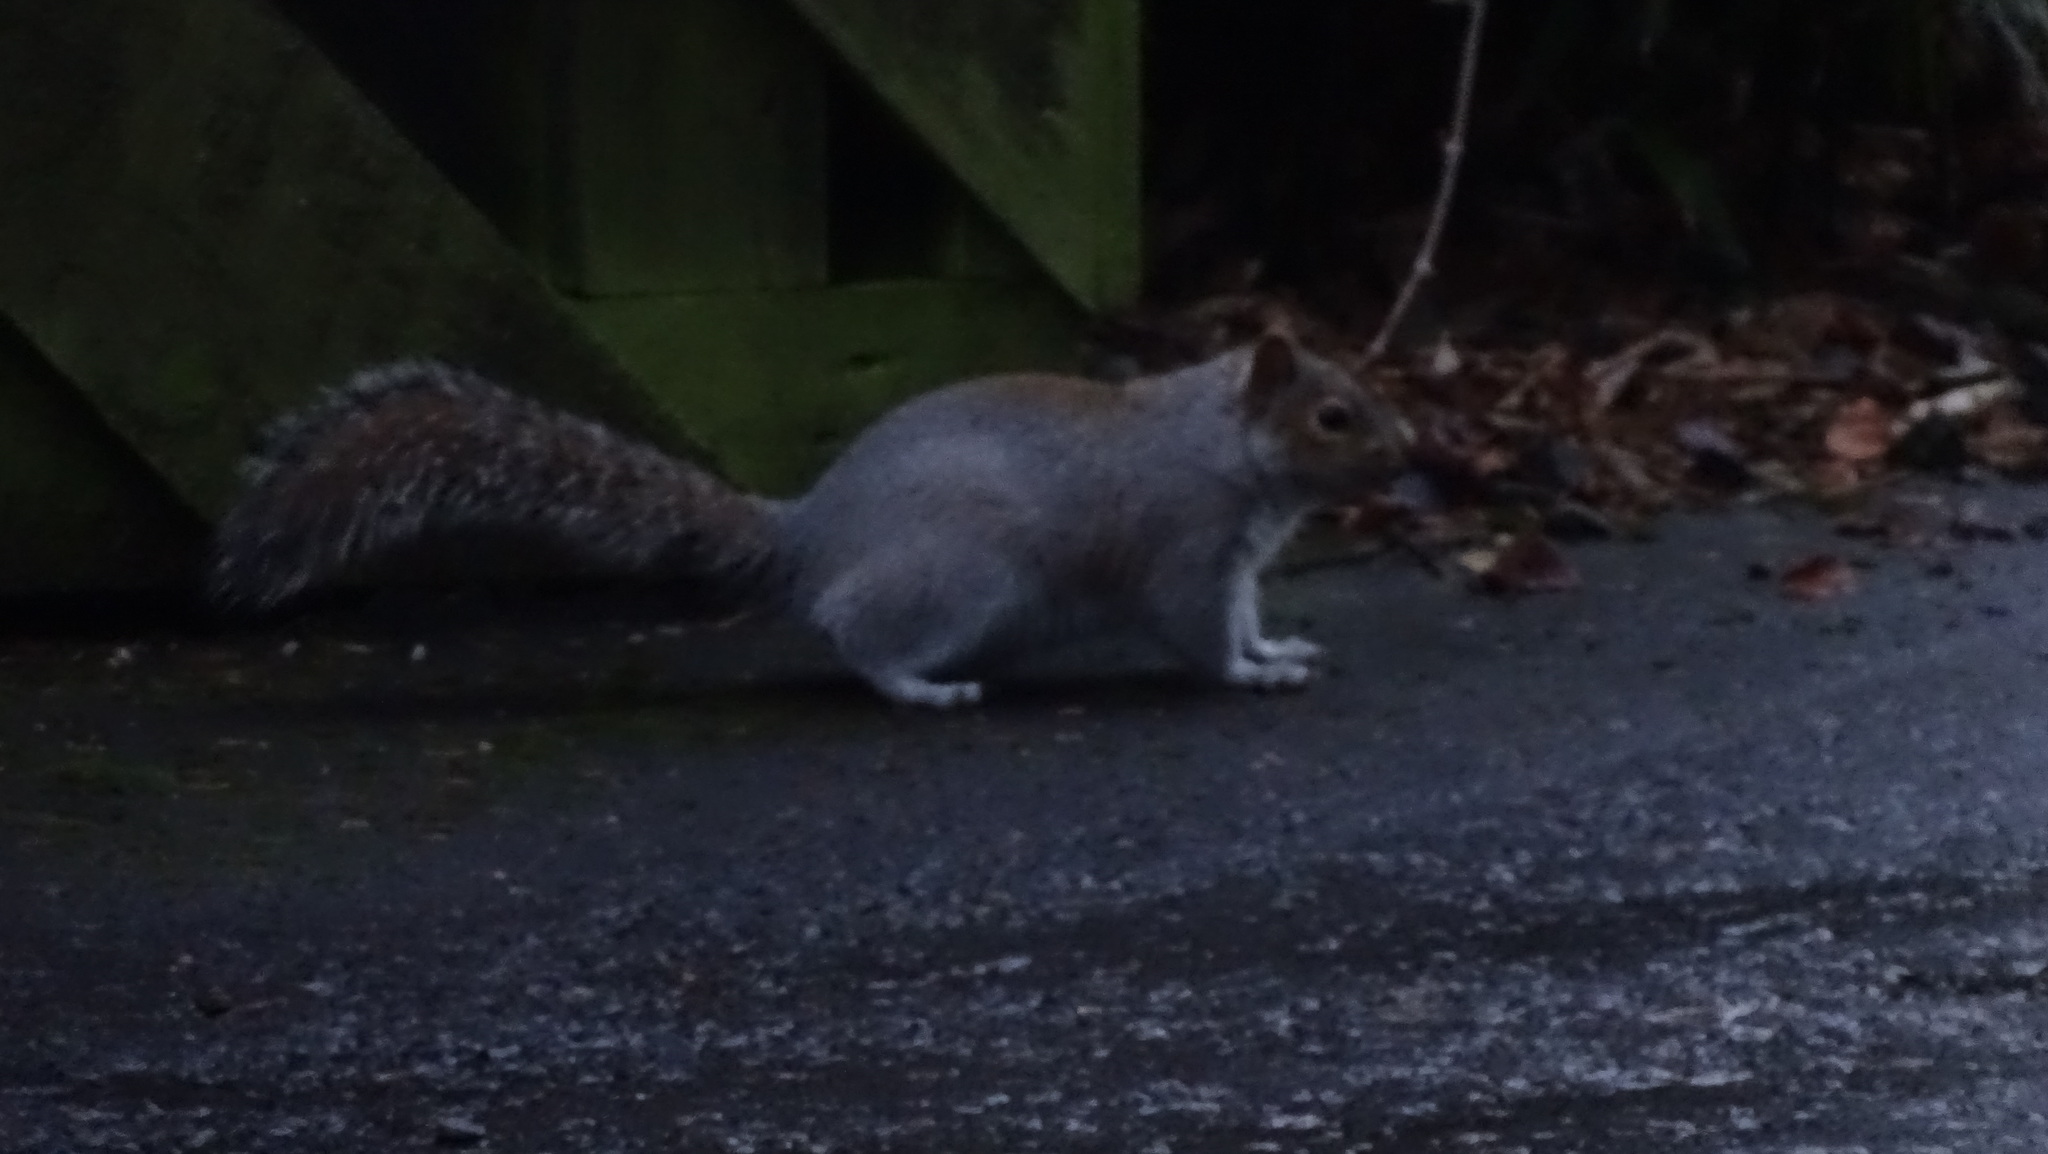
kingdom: Animalia
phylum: Chordata
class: Mammalia
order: Rodentia
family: Sciuridae
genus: Sciurus
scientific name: Sciurus carolinensis
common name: Eastern gray squirrel
